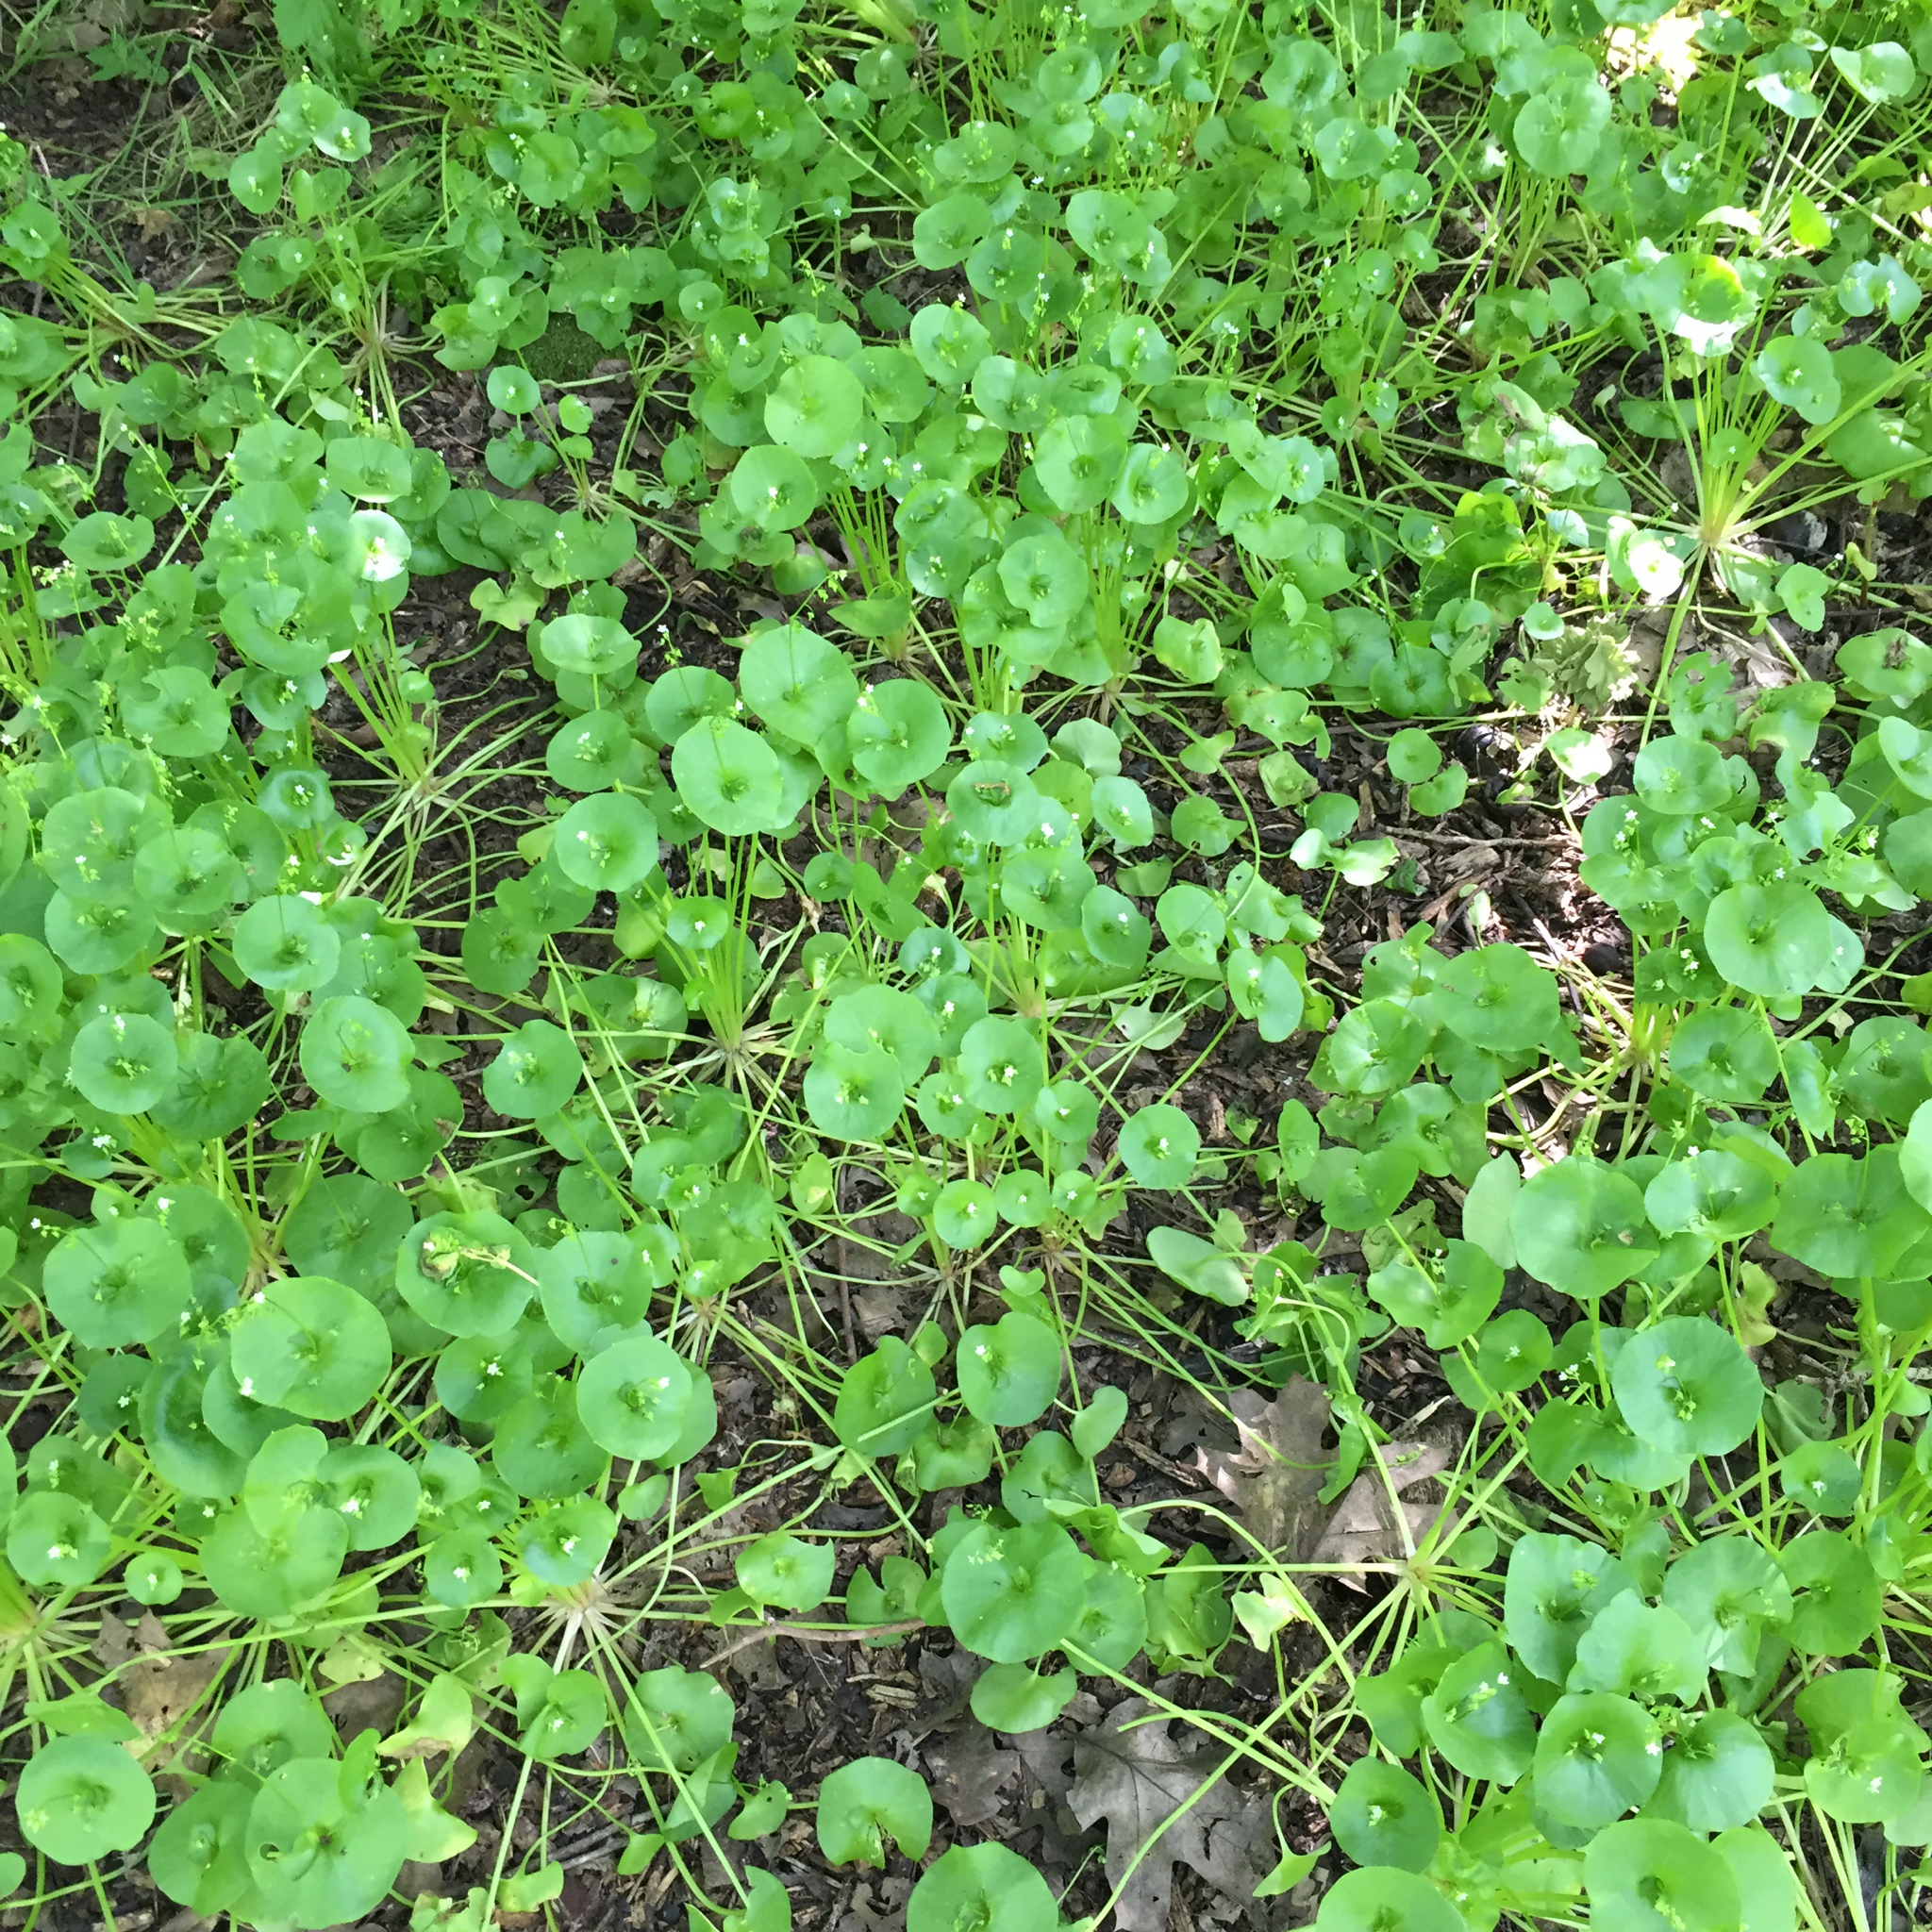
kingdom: Plantae
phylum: Tracheophyta
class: Magnoliopsida
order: Caryophyllales
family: Montiaceae
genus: Claytonia
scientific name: Claytonia perfoliata
